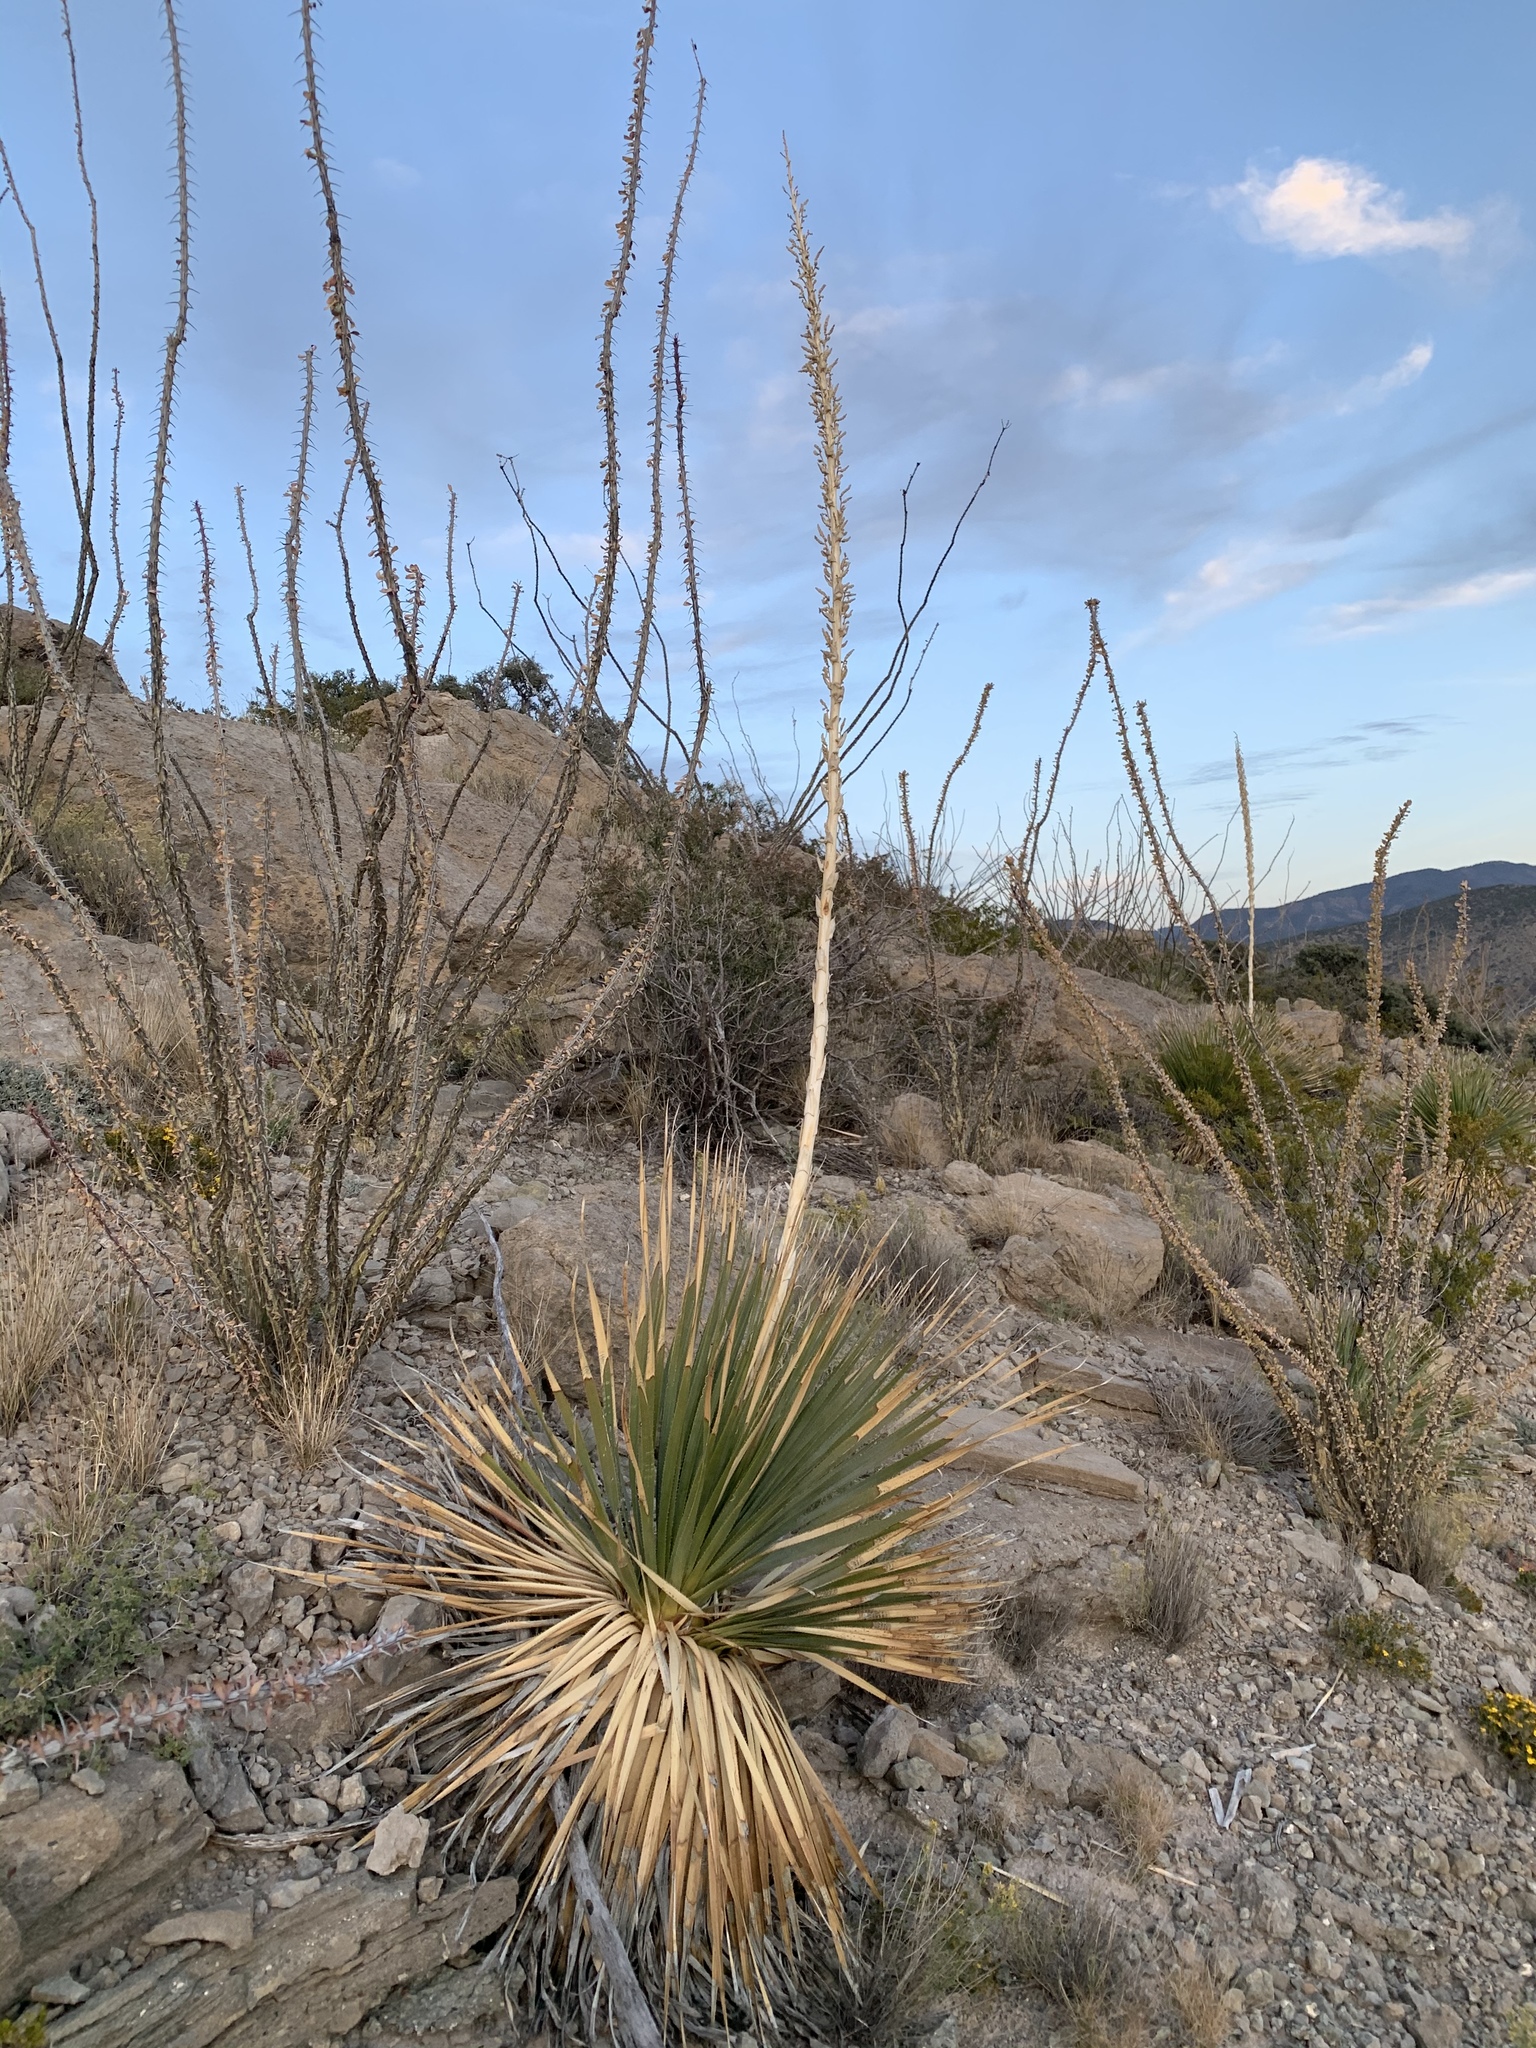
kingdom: Plantae
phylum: Tracheophyta
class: Magnoliopsida
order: Ericales
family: Fouquieriaceae
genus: Fouquieria
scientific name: Fouquieria splendens
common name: Vine-cactus
